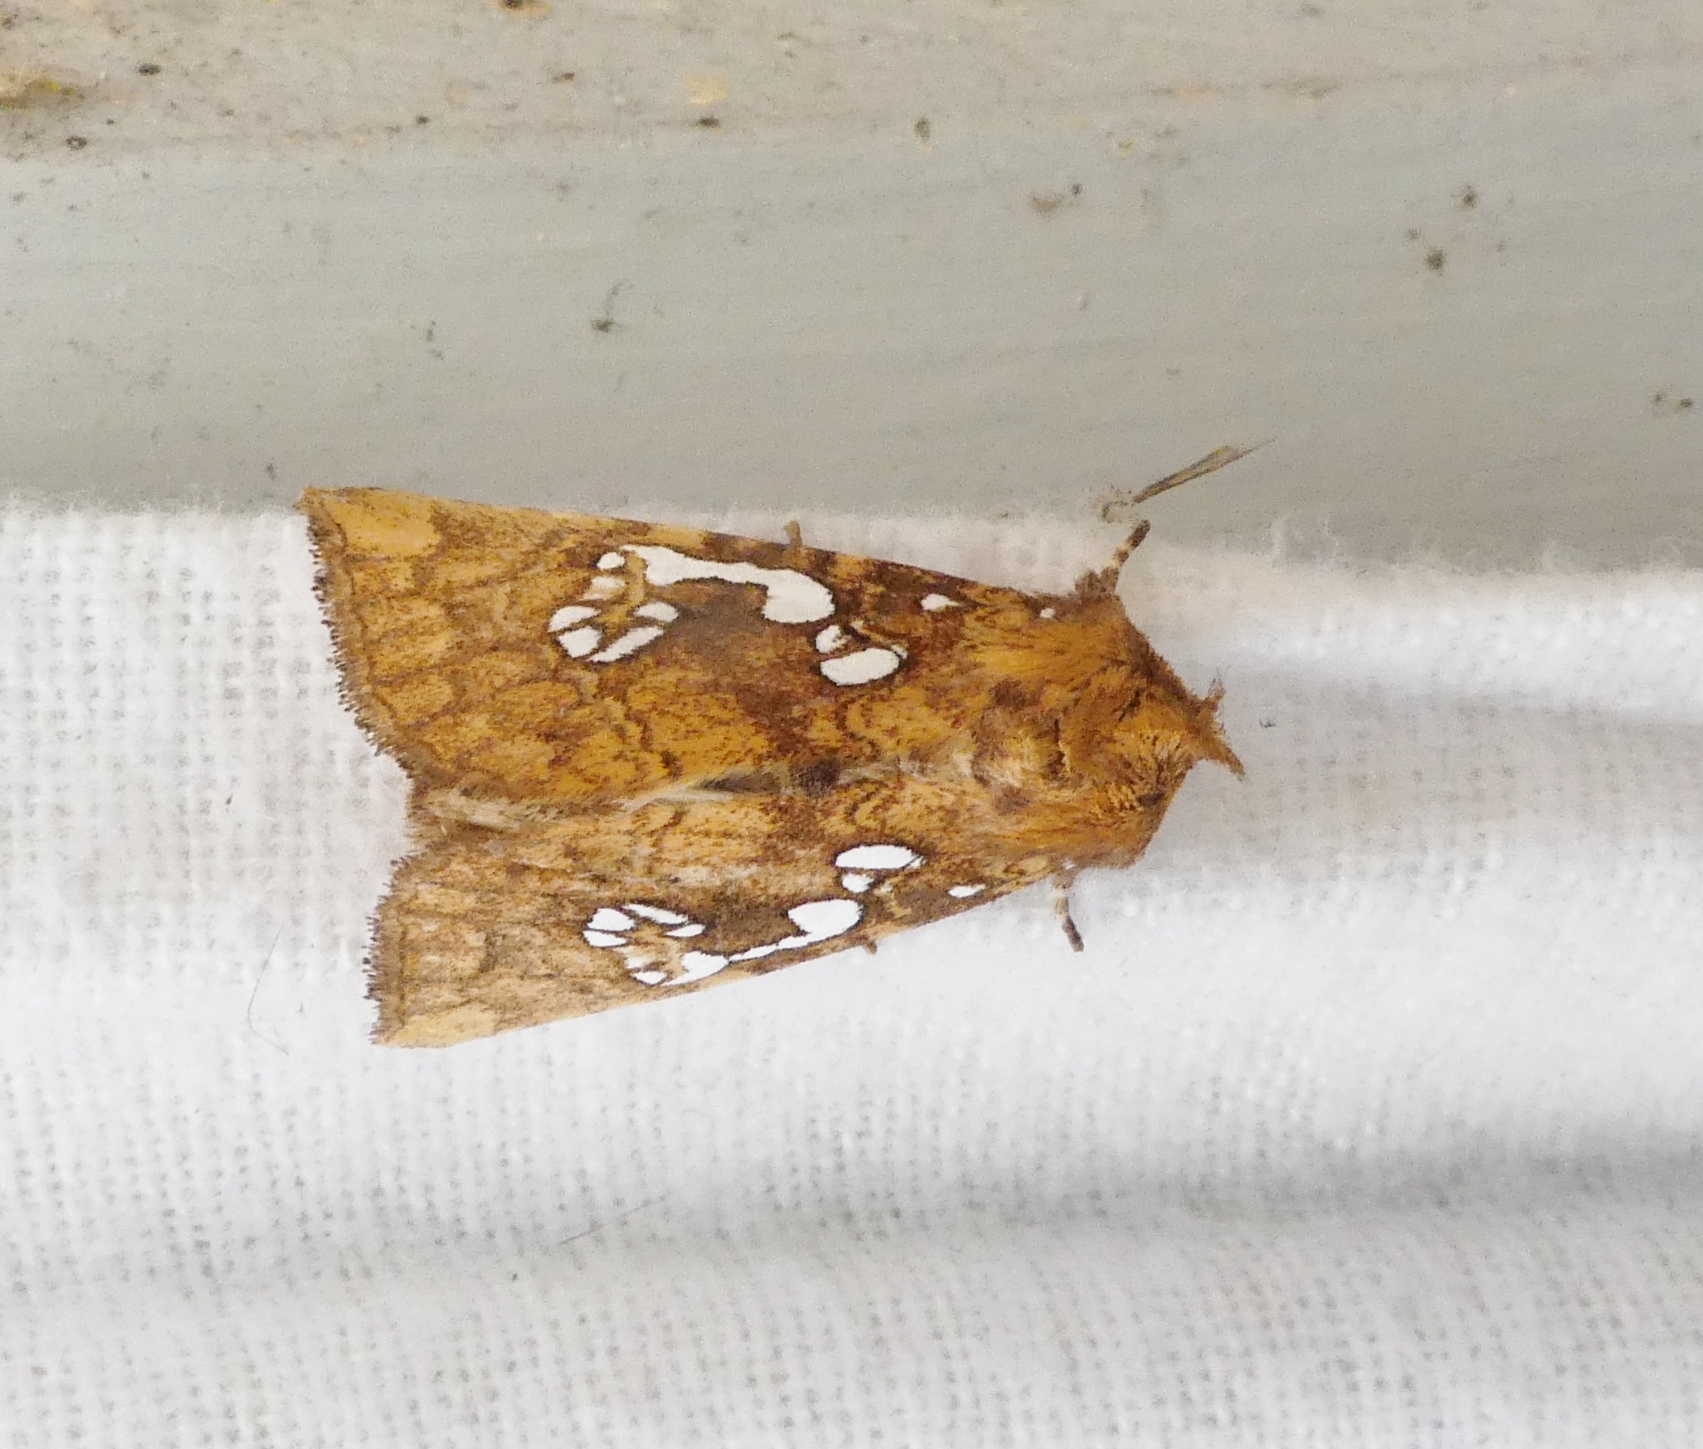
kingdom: Animalia
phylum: Arthropoda
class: Insecta
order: Lepidoptera
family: Noctuidae
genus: Papaipema
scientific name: Papaipema furcata
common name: Ash tip borer moth
